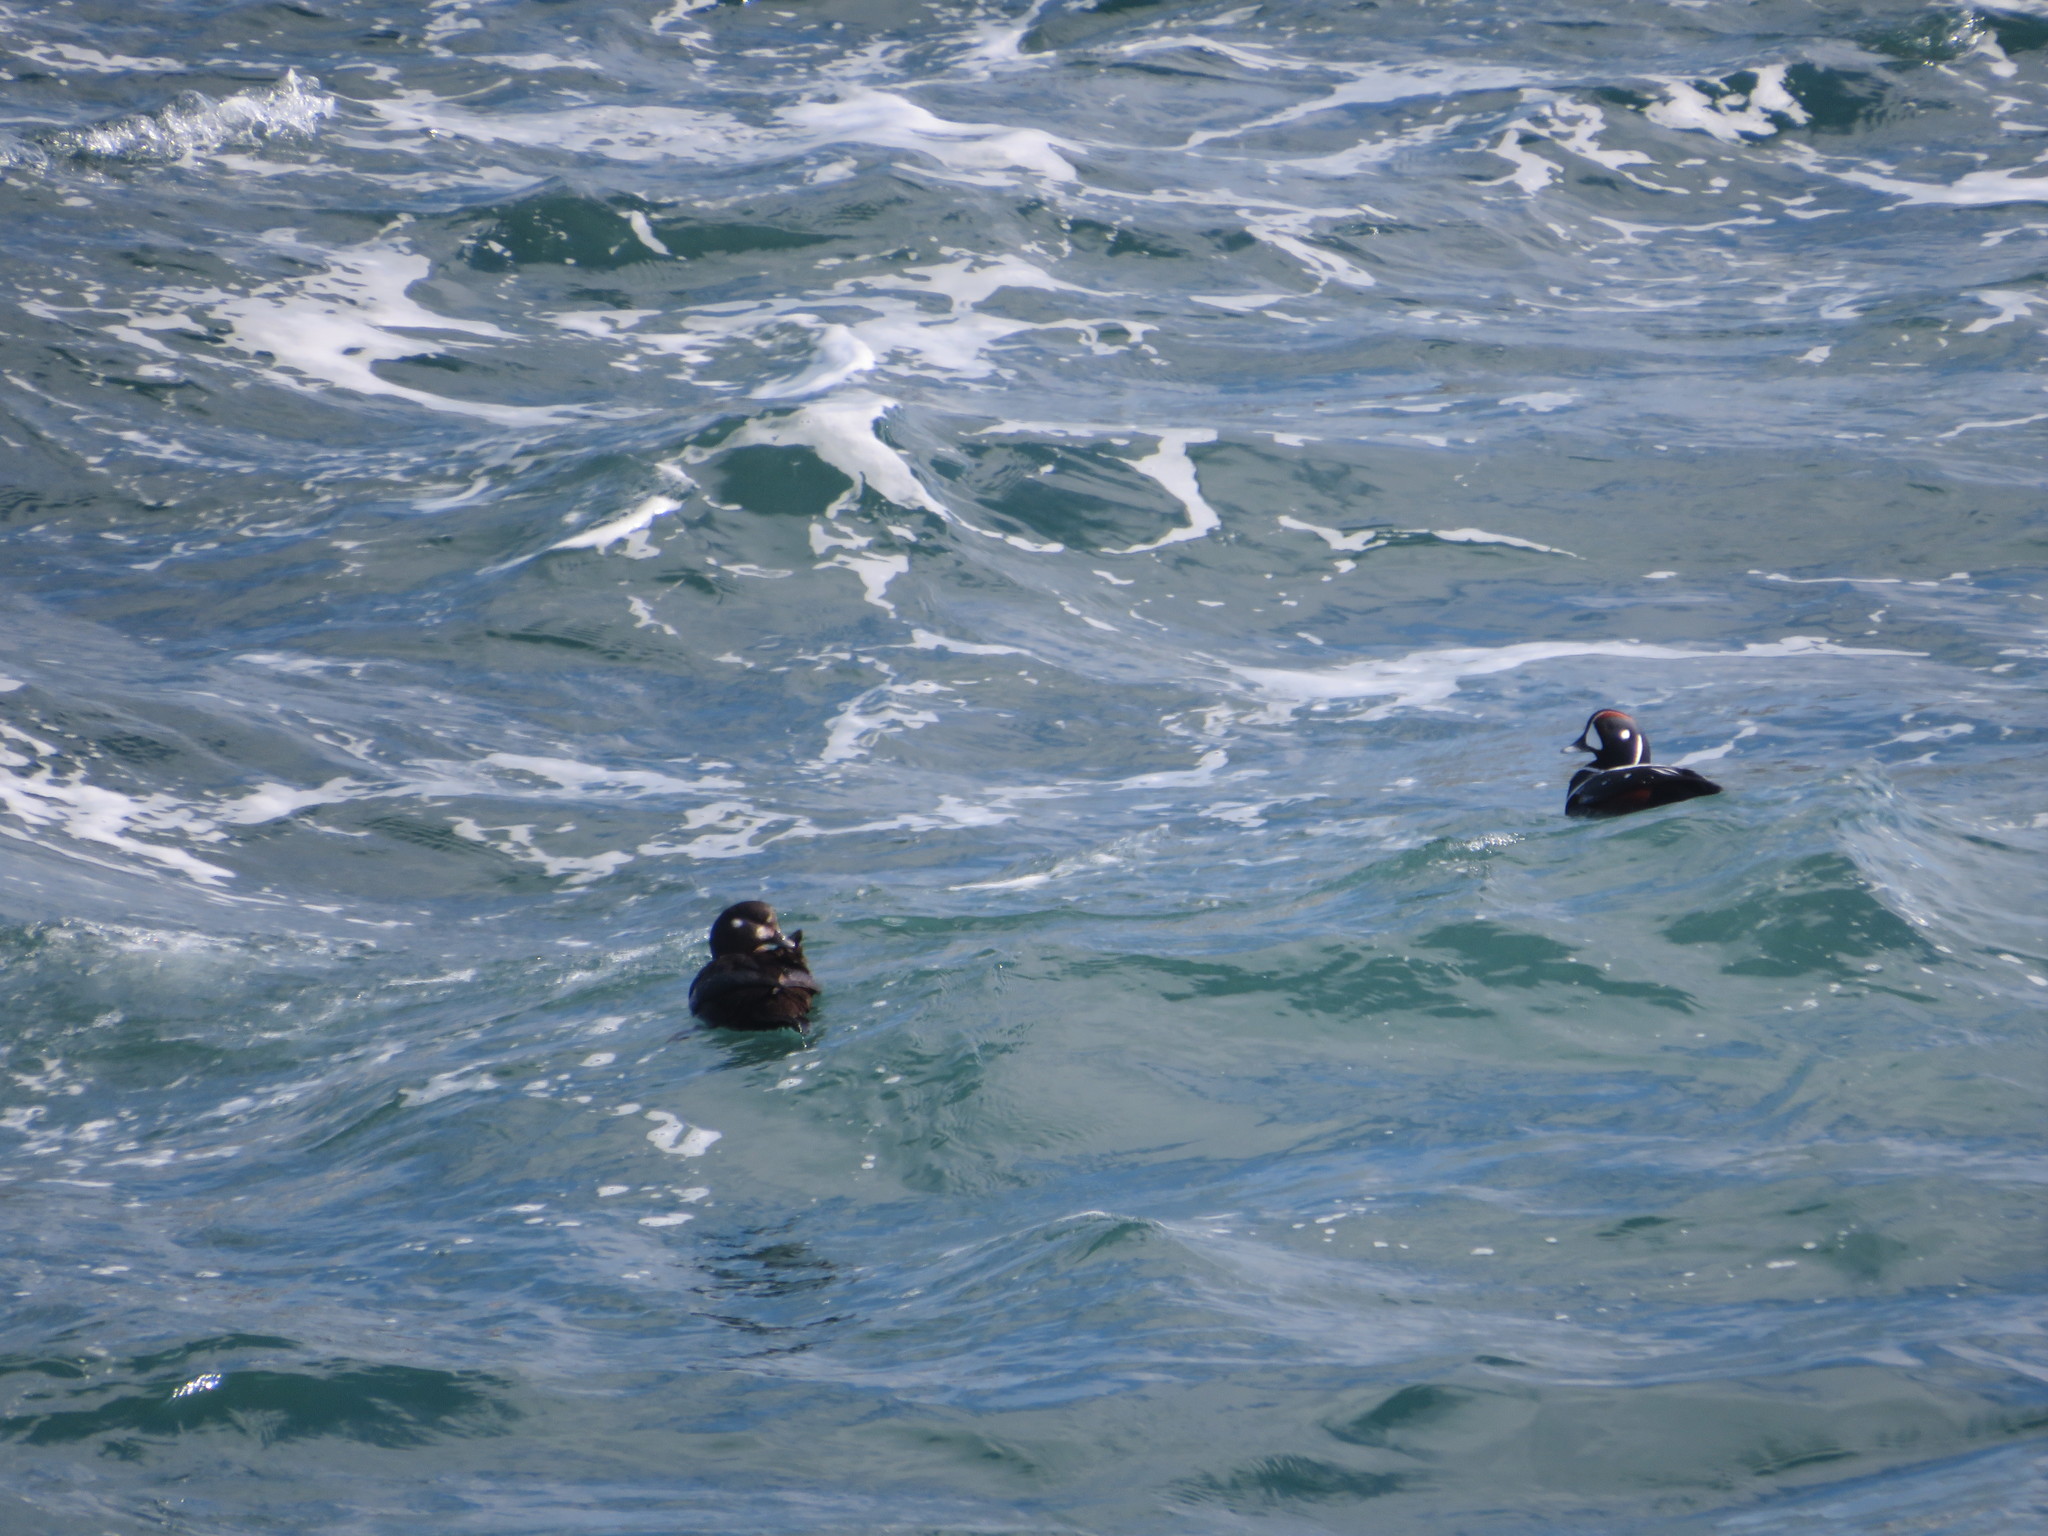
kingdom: Animalia
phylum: Chordata
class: Aves
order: Anseriformes
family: Anatidae
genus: Histrionicus
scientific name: Histrionicus histrionicus
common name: Harlequin duck
